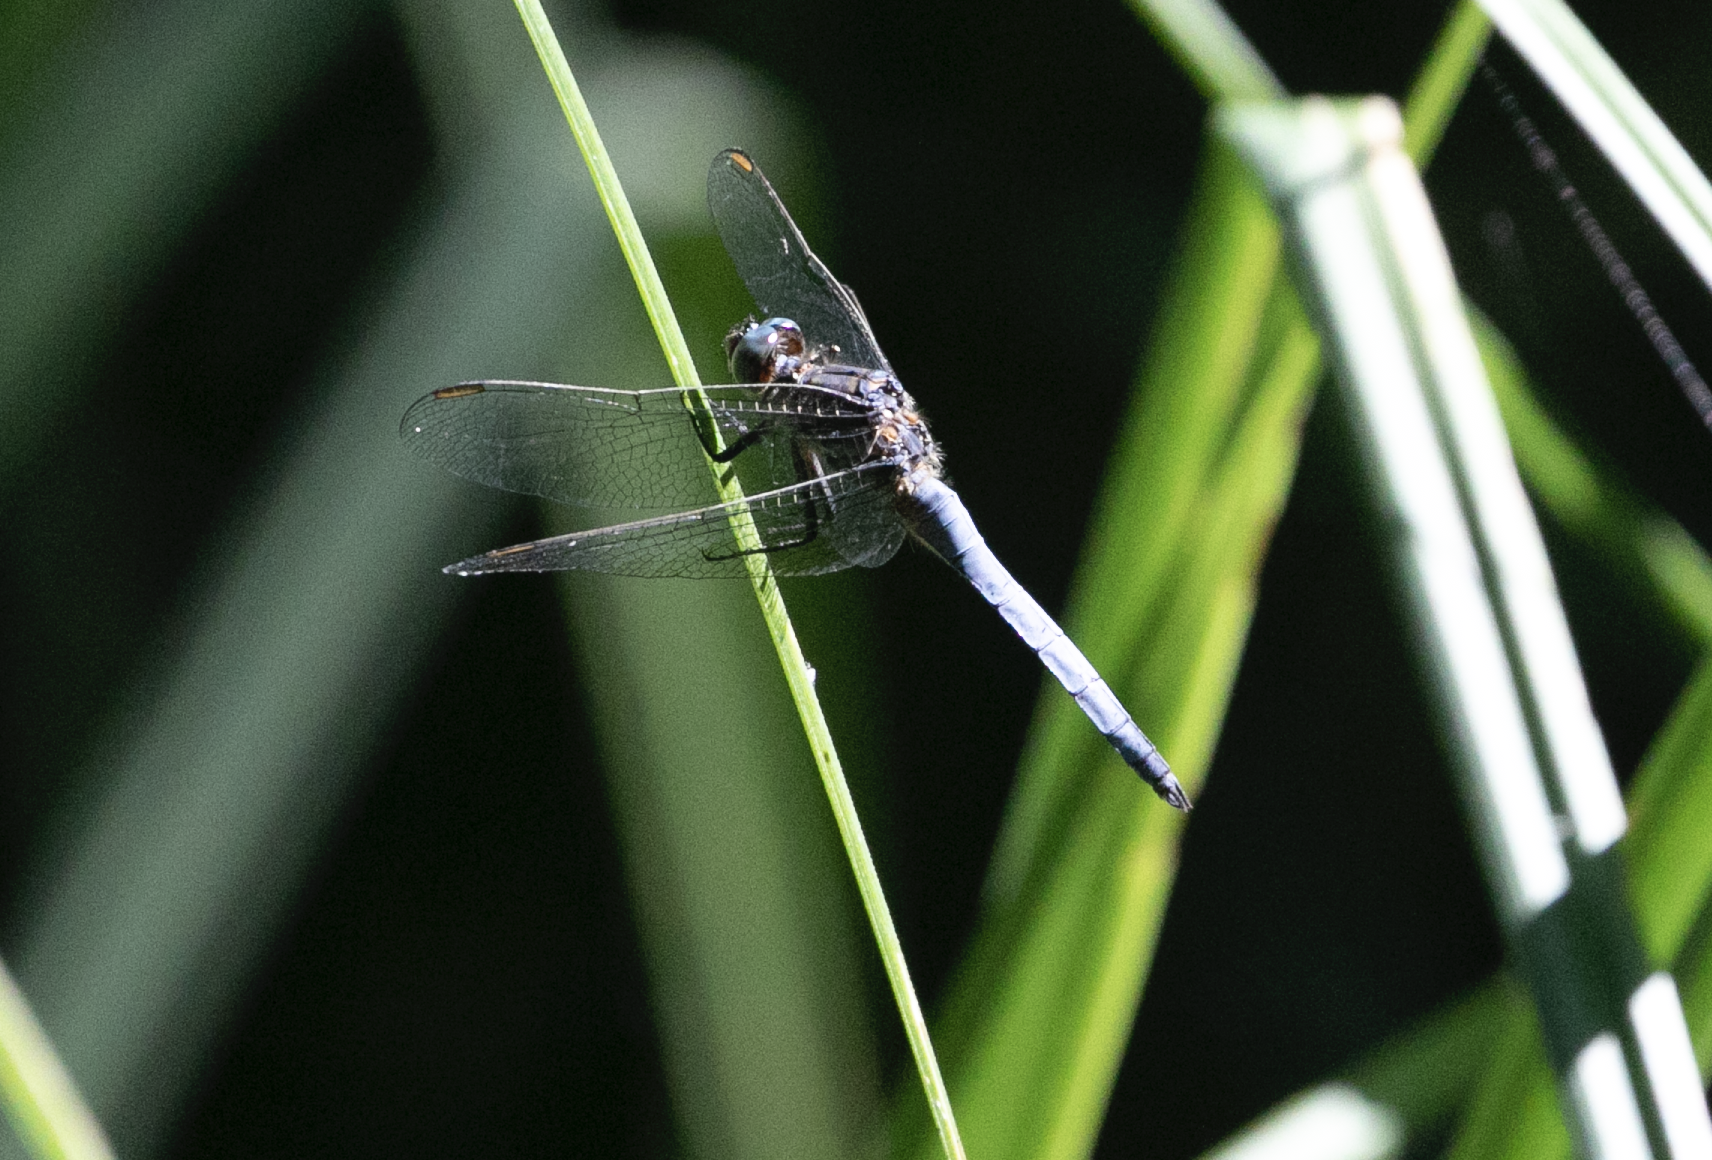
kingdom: Animalia
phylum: Arthropoda
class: Insecta
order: Odonata
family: Libellulidae
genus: Orthetrum
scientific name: Orthetrum coerulescens
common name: Keeled skimmer
